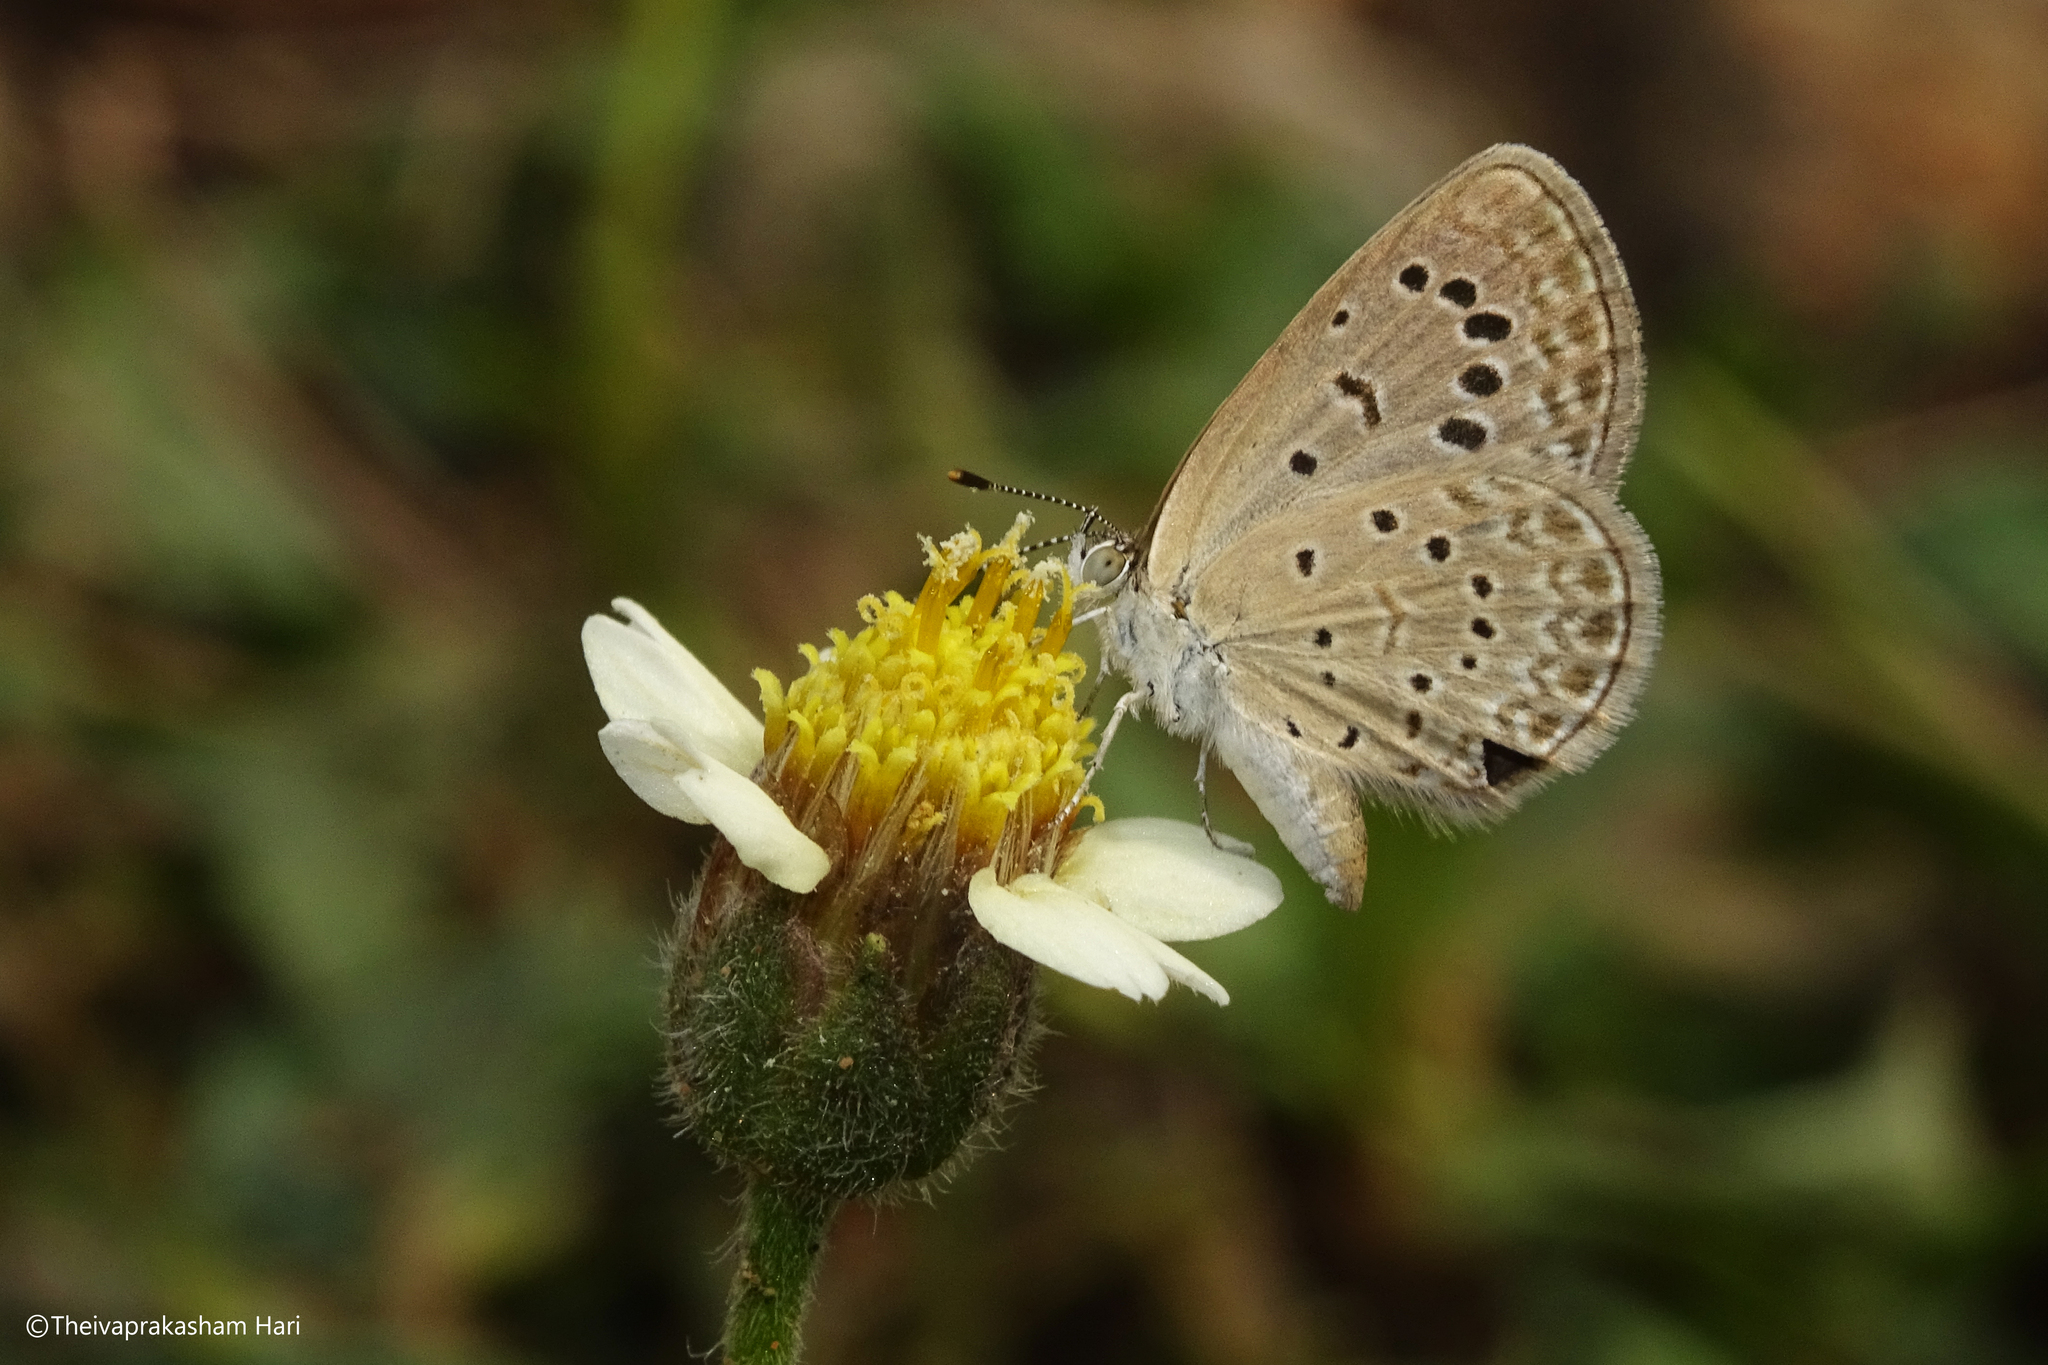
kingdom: Animalia
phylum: Arthropoda
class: Insecta
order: Lepidoptera
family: Lycaenidae
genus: Zizeeria
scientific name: Zizeeria karsandra
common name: Dark grass blue
